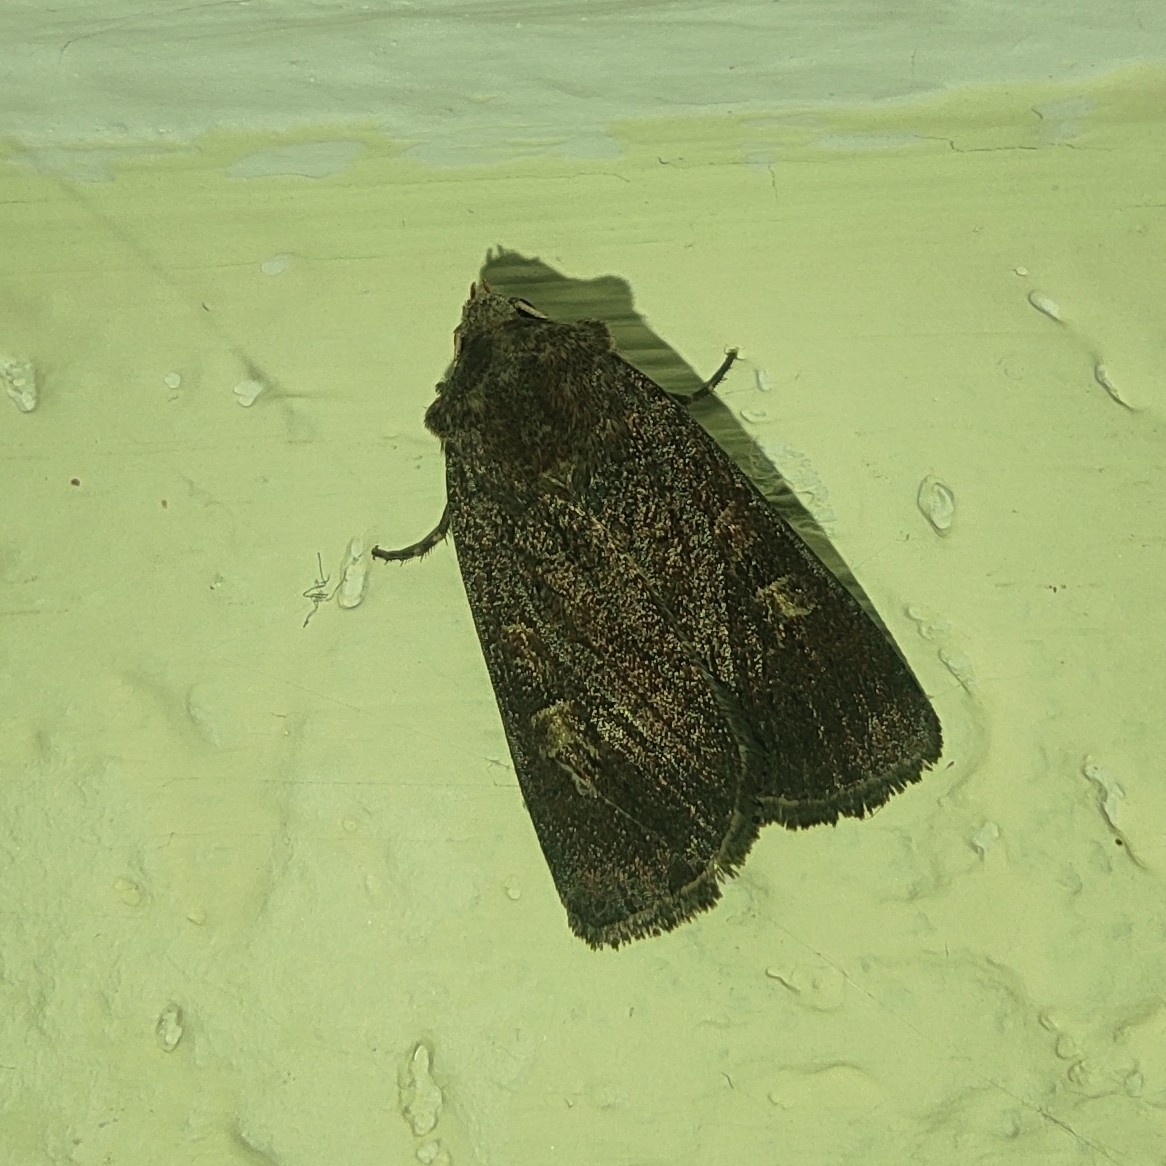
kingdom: Animalia
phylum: Arthropoda
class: Insecta
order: Lepidoptera
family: Noctuidae
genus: Xestia
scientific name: Xestia xanthographa
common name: Square-spot rustic
